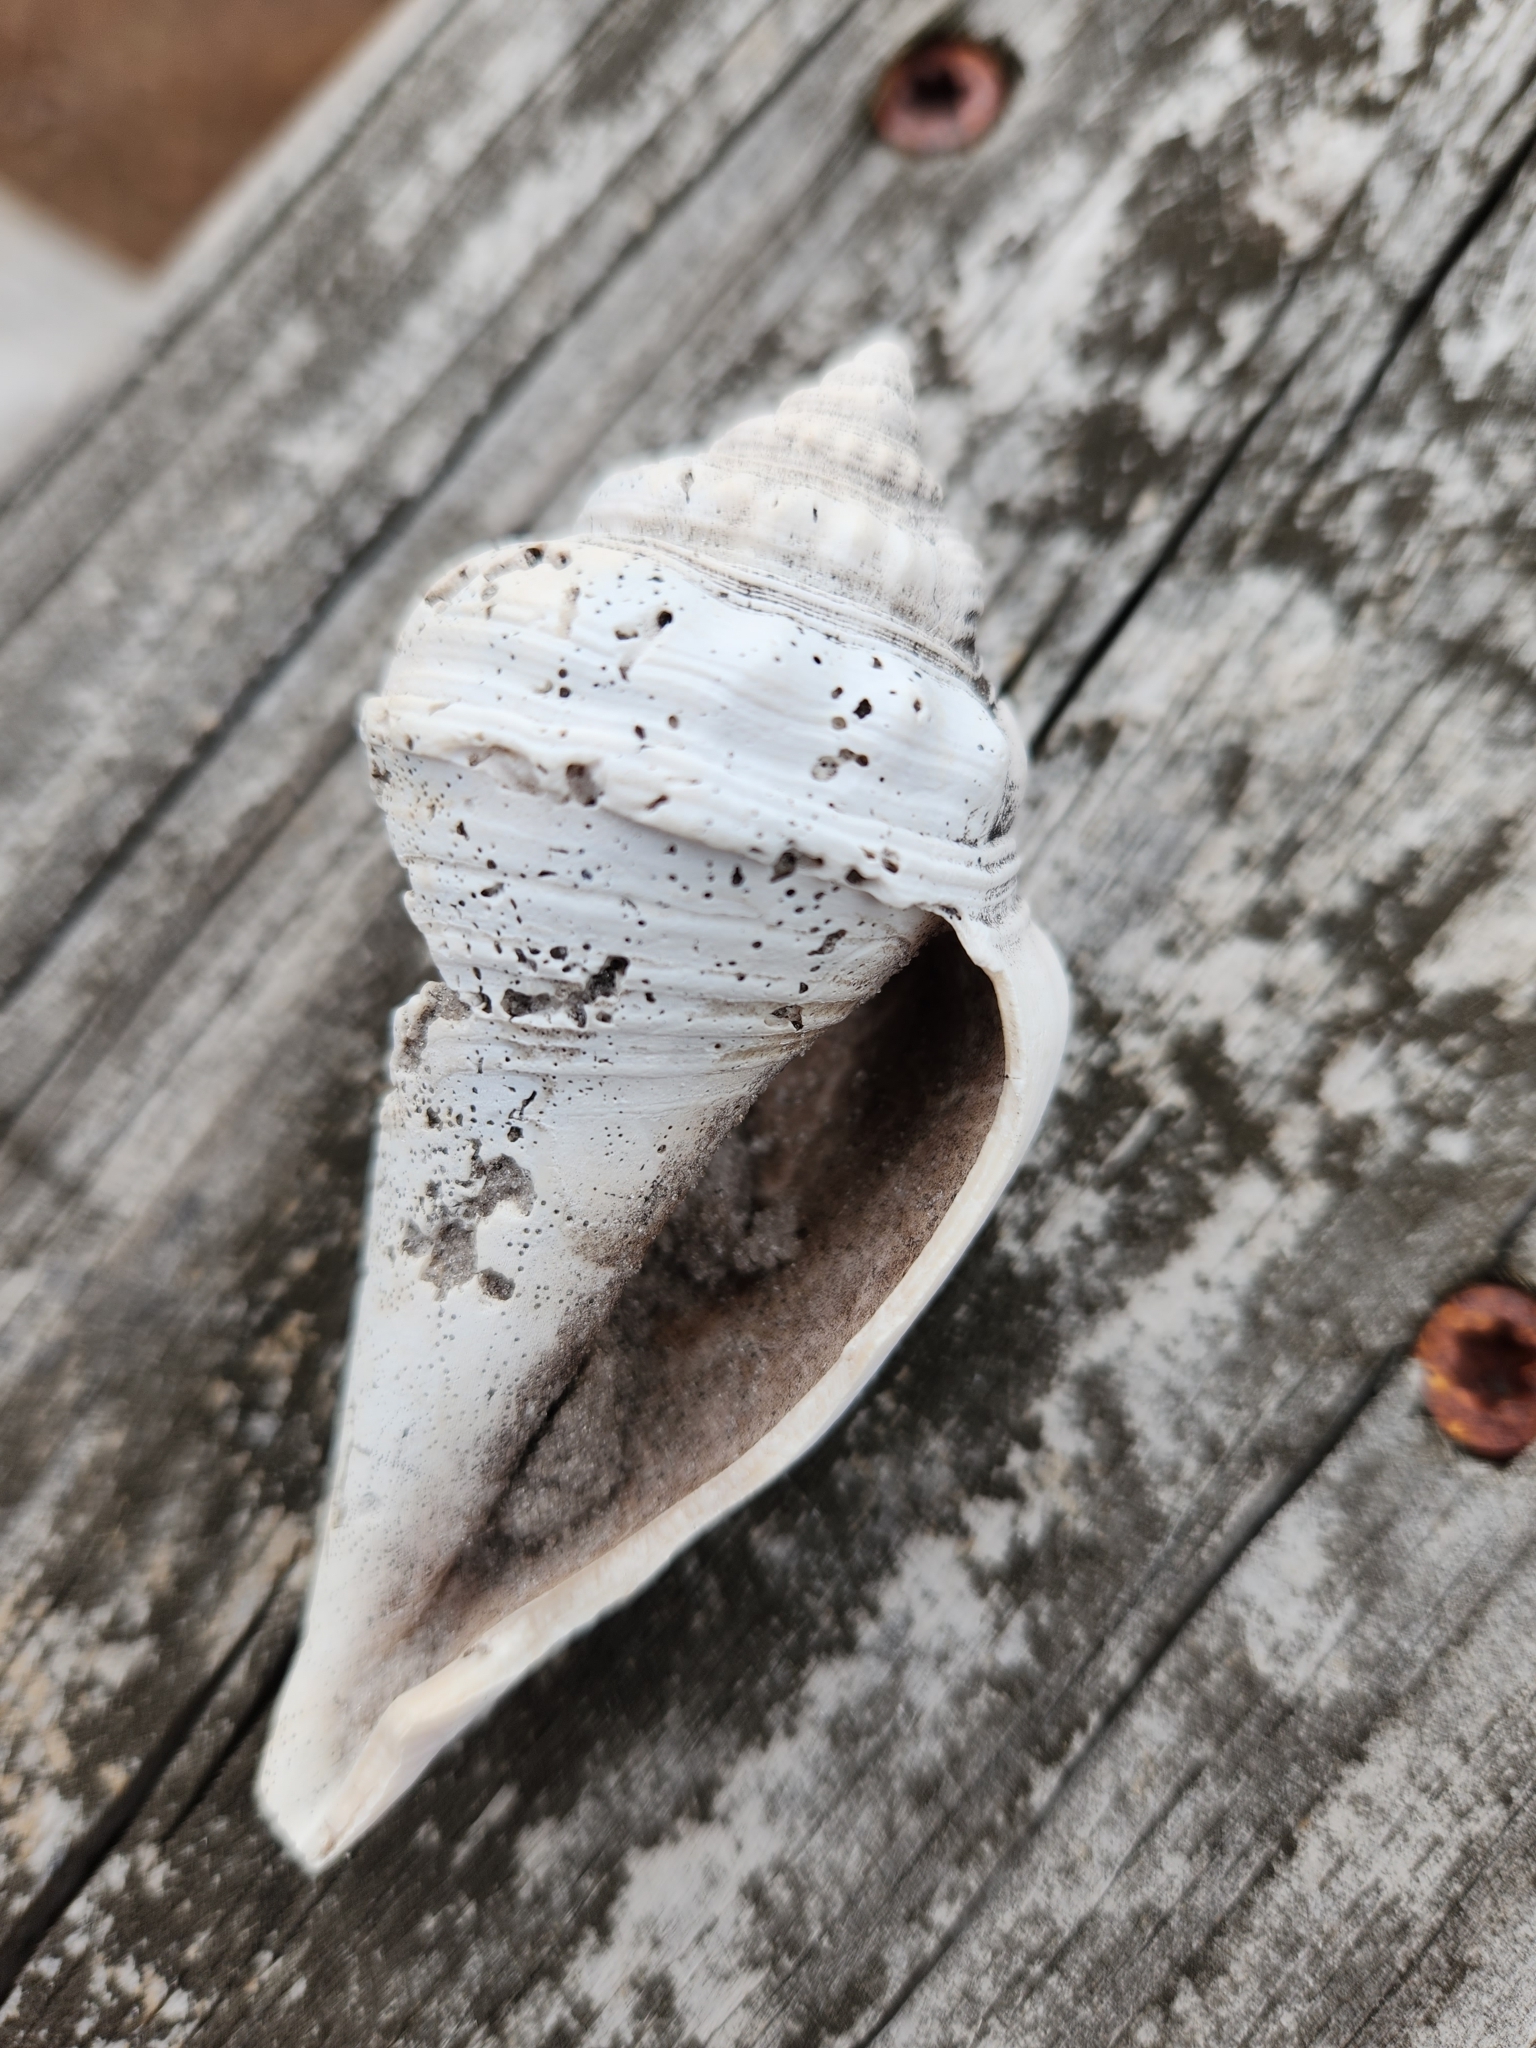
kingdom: Animalia
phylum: Mollusca
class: Gastropoda
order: Littorinimorpha
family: Strombidae
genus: Strombus
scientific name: Strombus alatus
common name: Florida fighting conch
